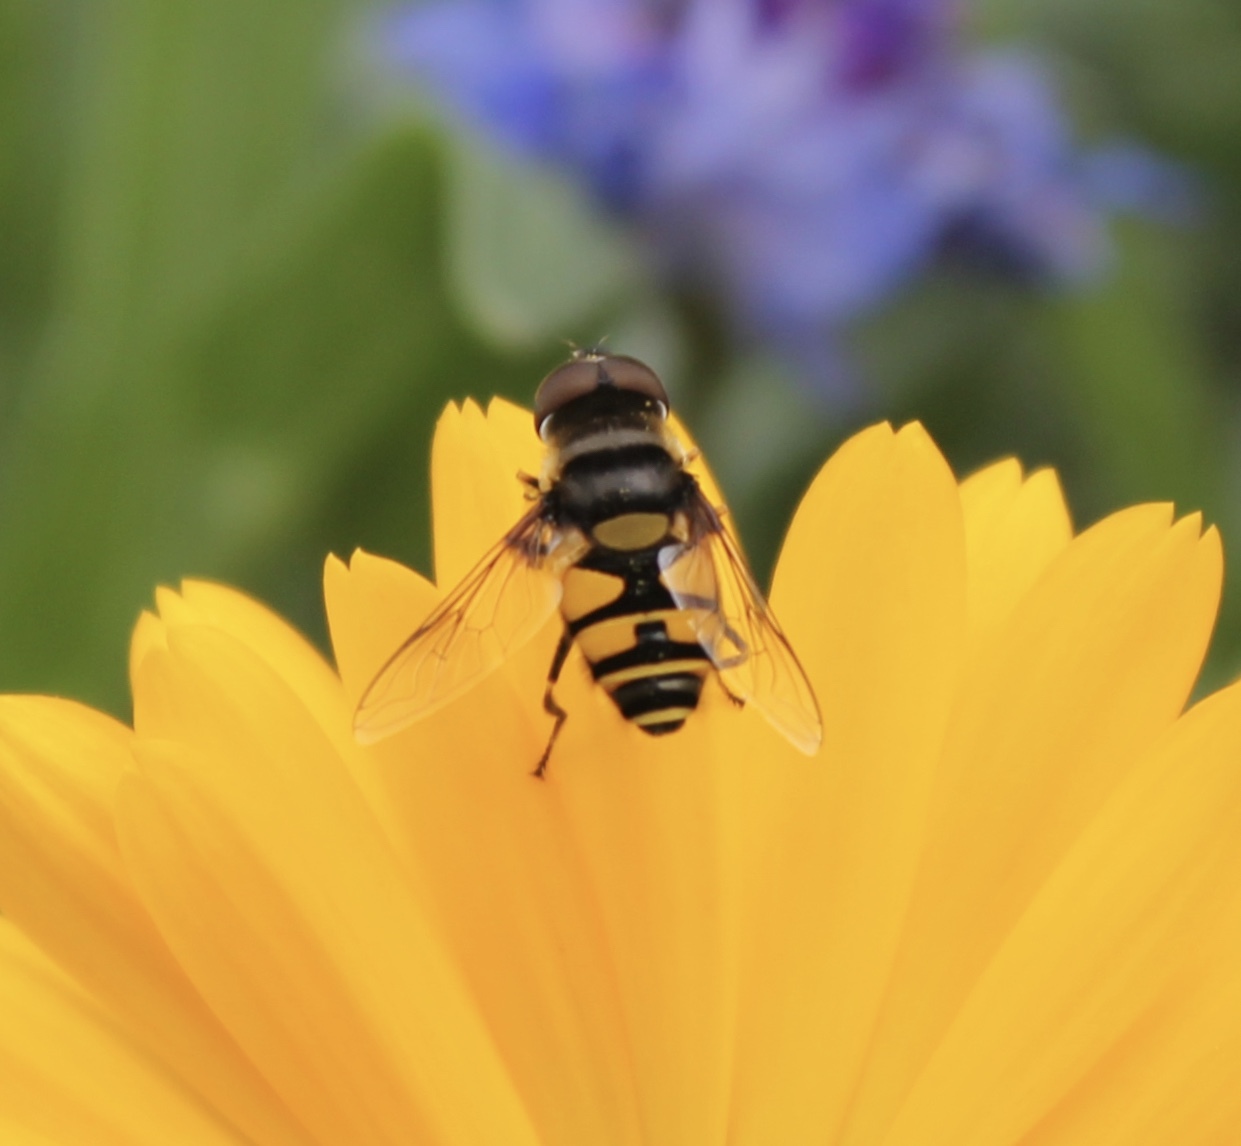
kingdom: Animalia
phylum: Arthropoda
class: Insecta
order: Diptera
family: Syrphidae
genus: Eristalis
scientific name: Eristalis transversa
